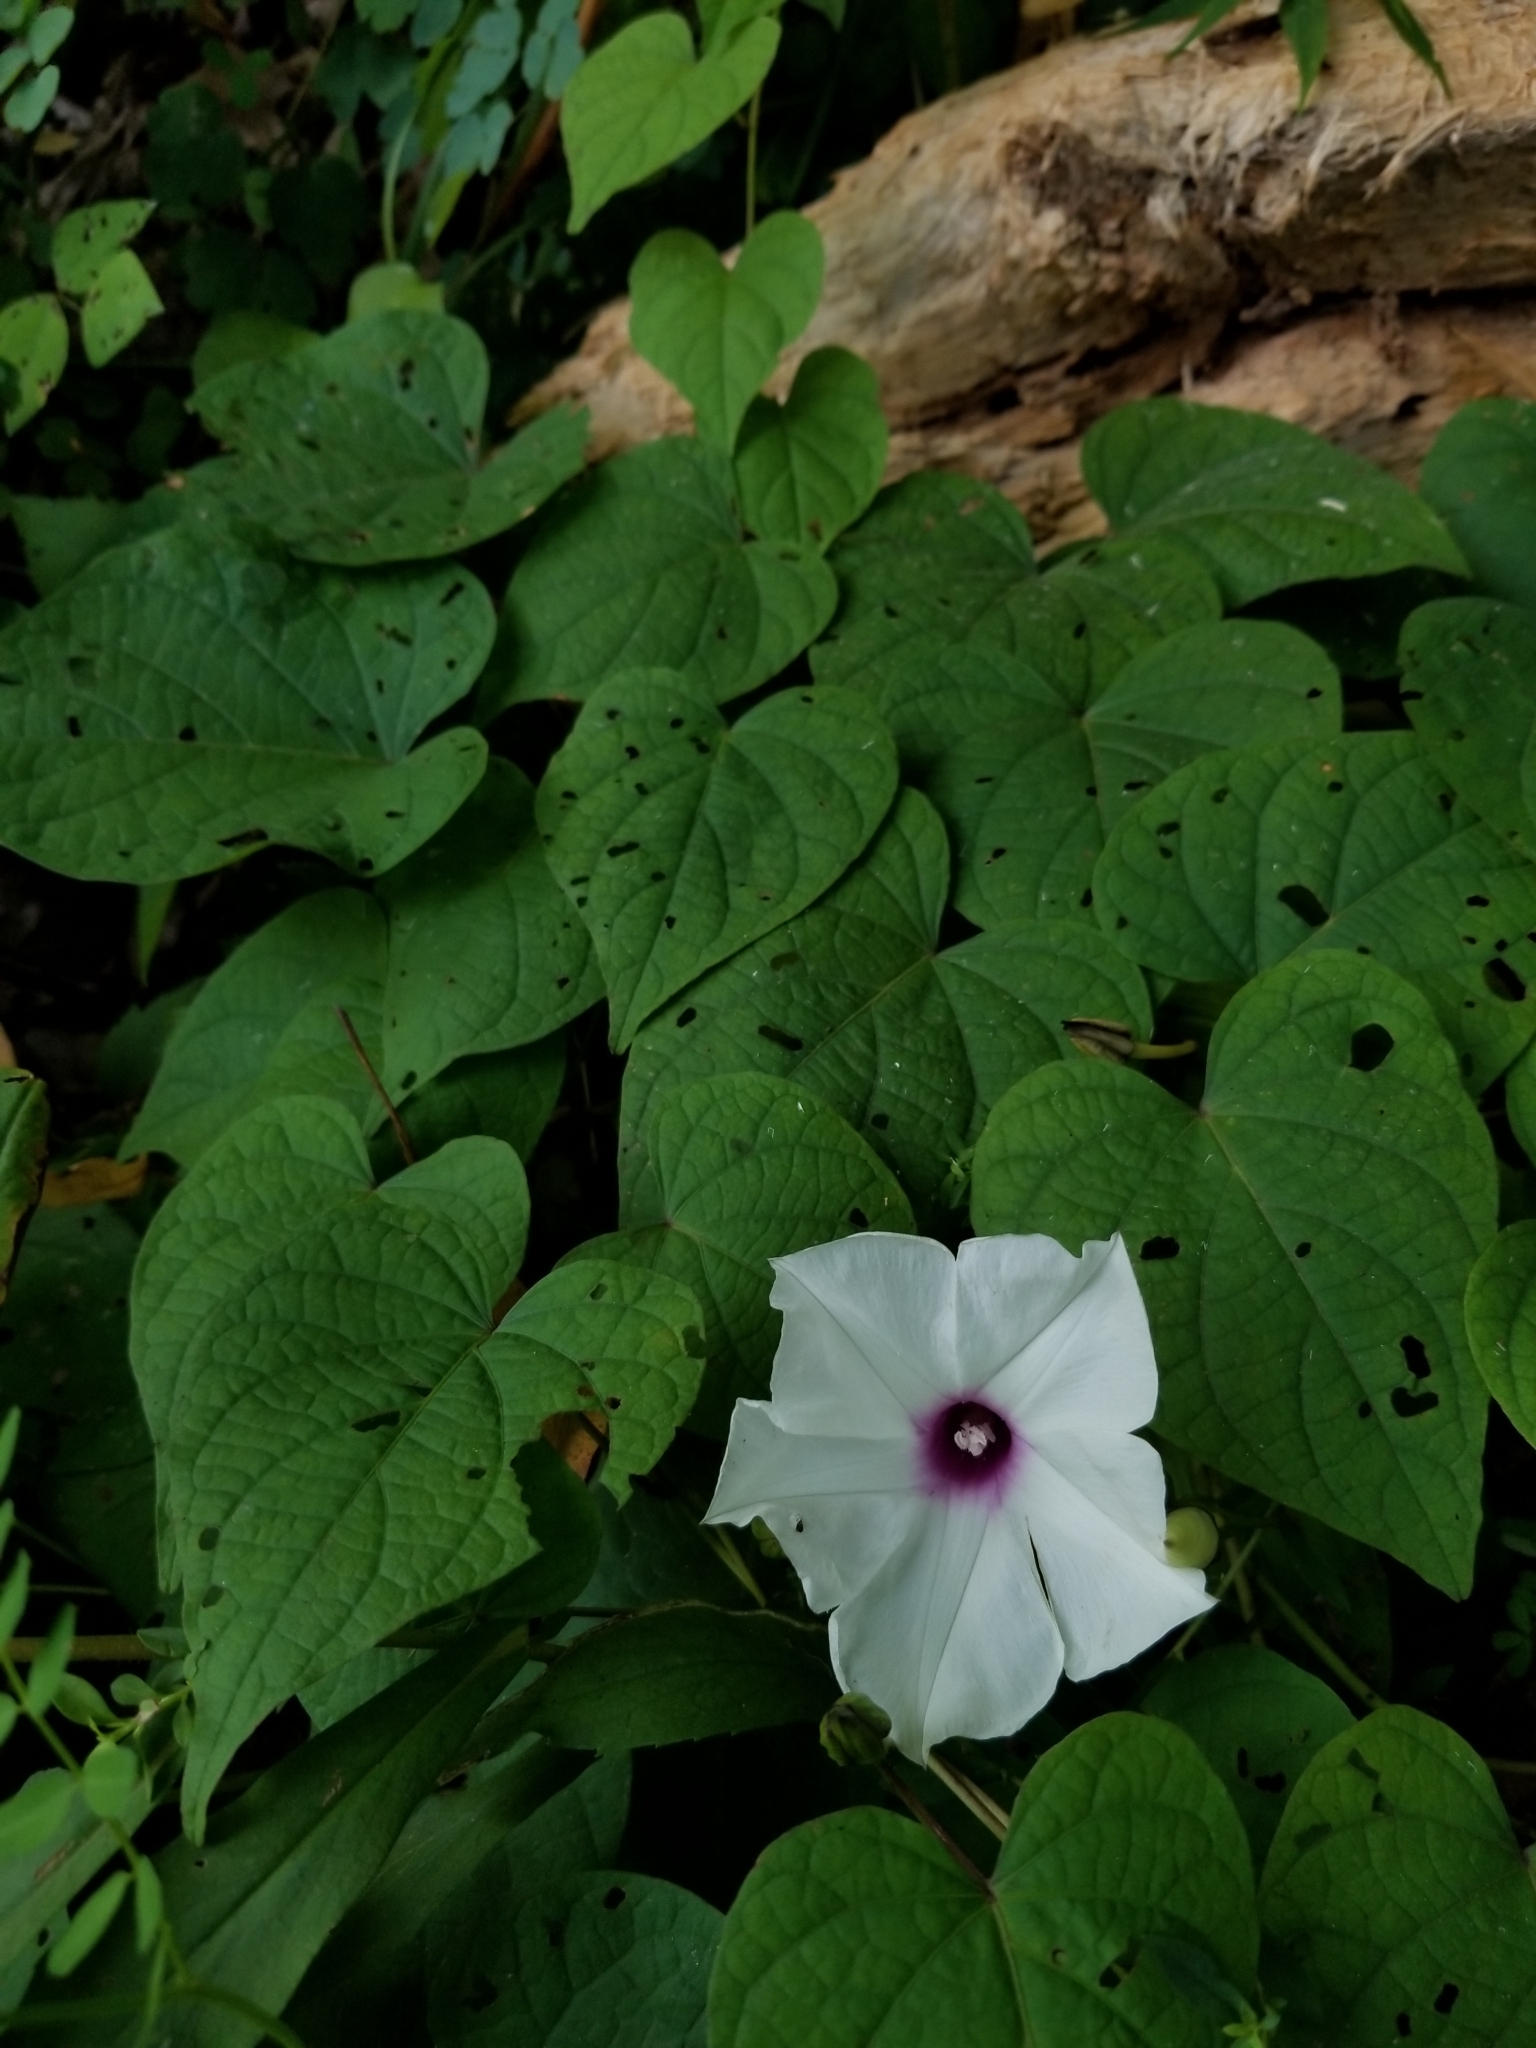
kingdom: Plantae
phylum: Tracheophyta
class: Magnoliopsida
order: Solanales
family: Convolvulaceae
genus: Ipomoea
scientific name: Ipomoea pandurata
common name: Man-of-the-earth
